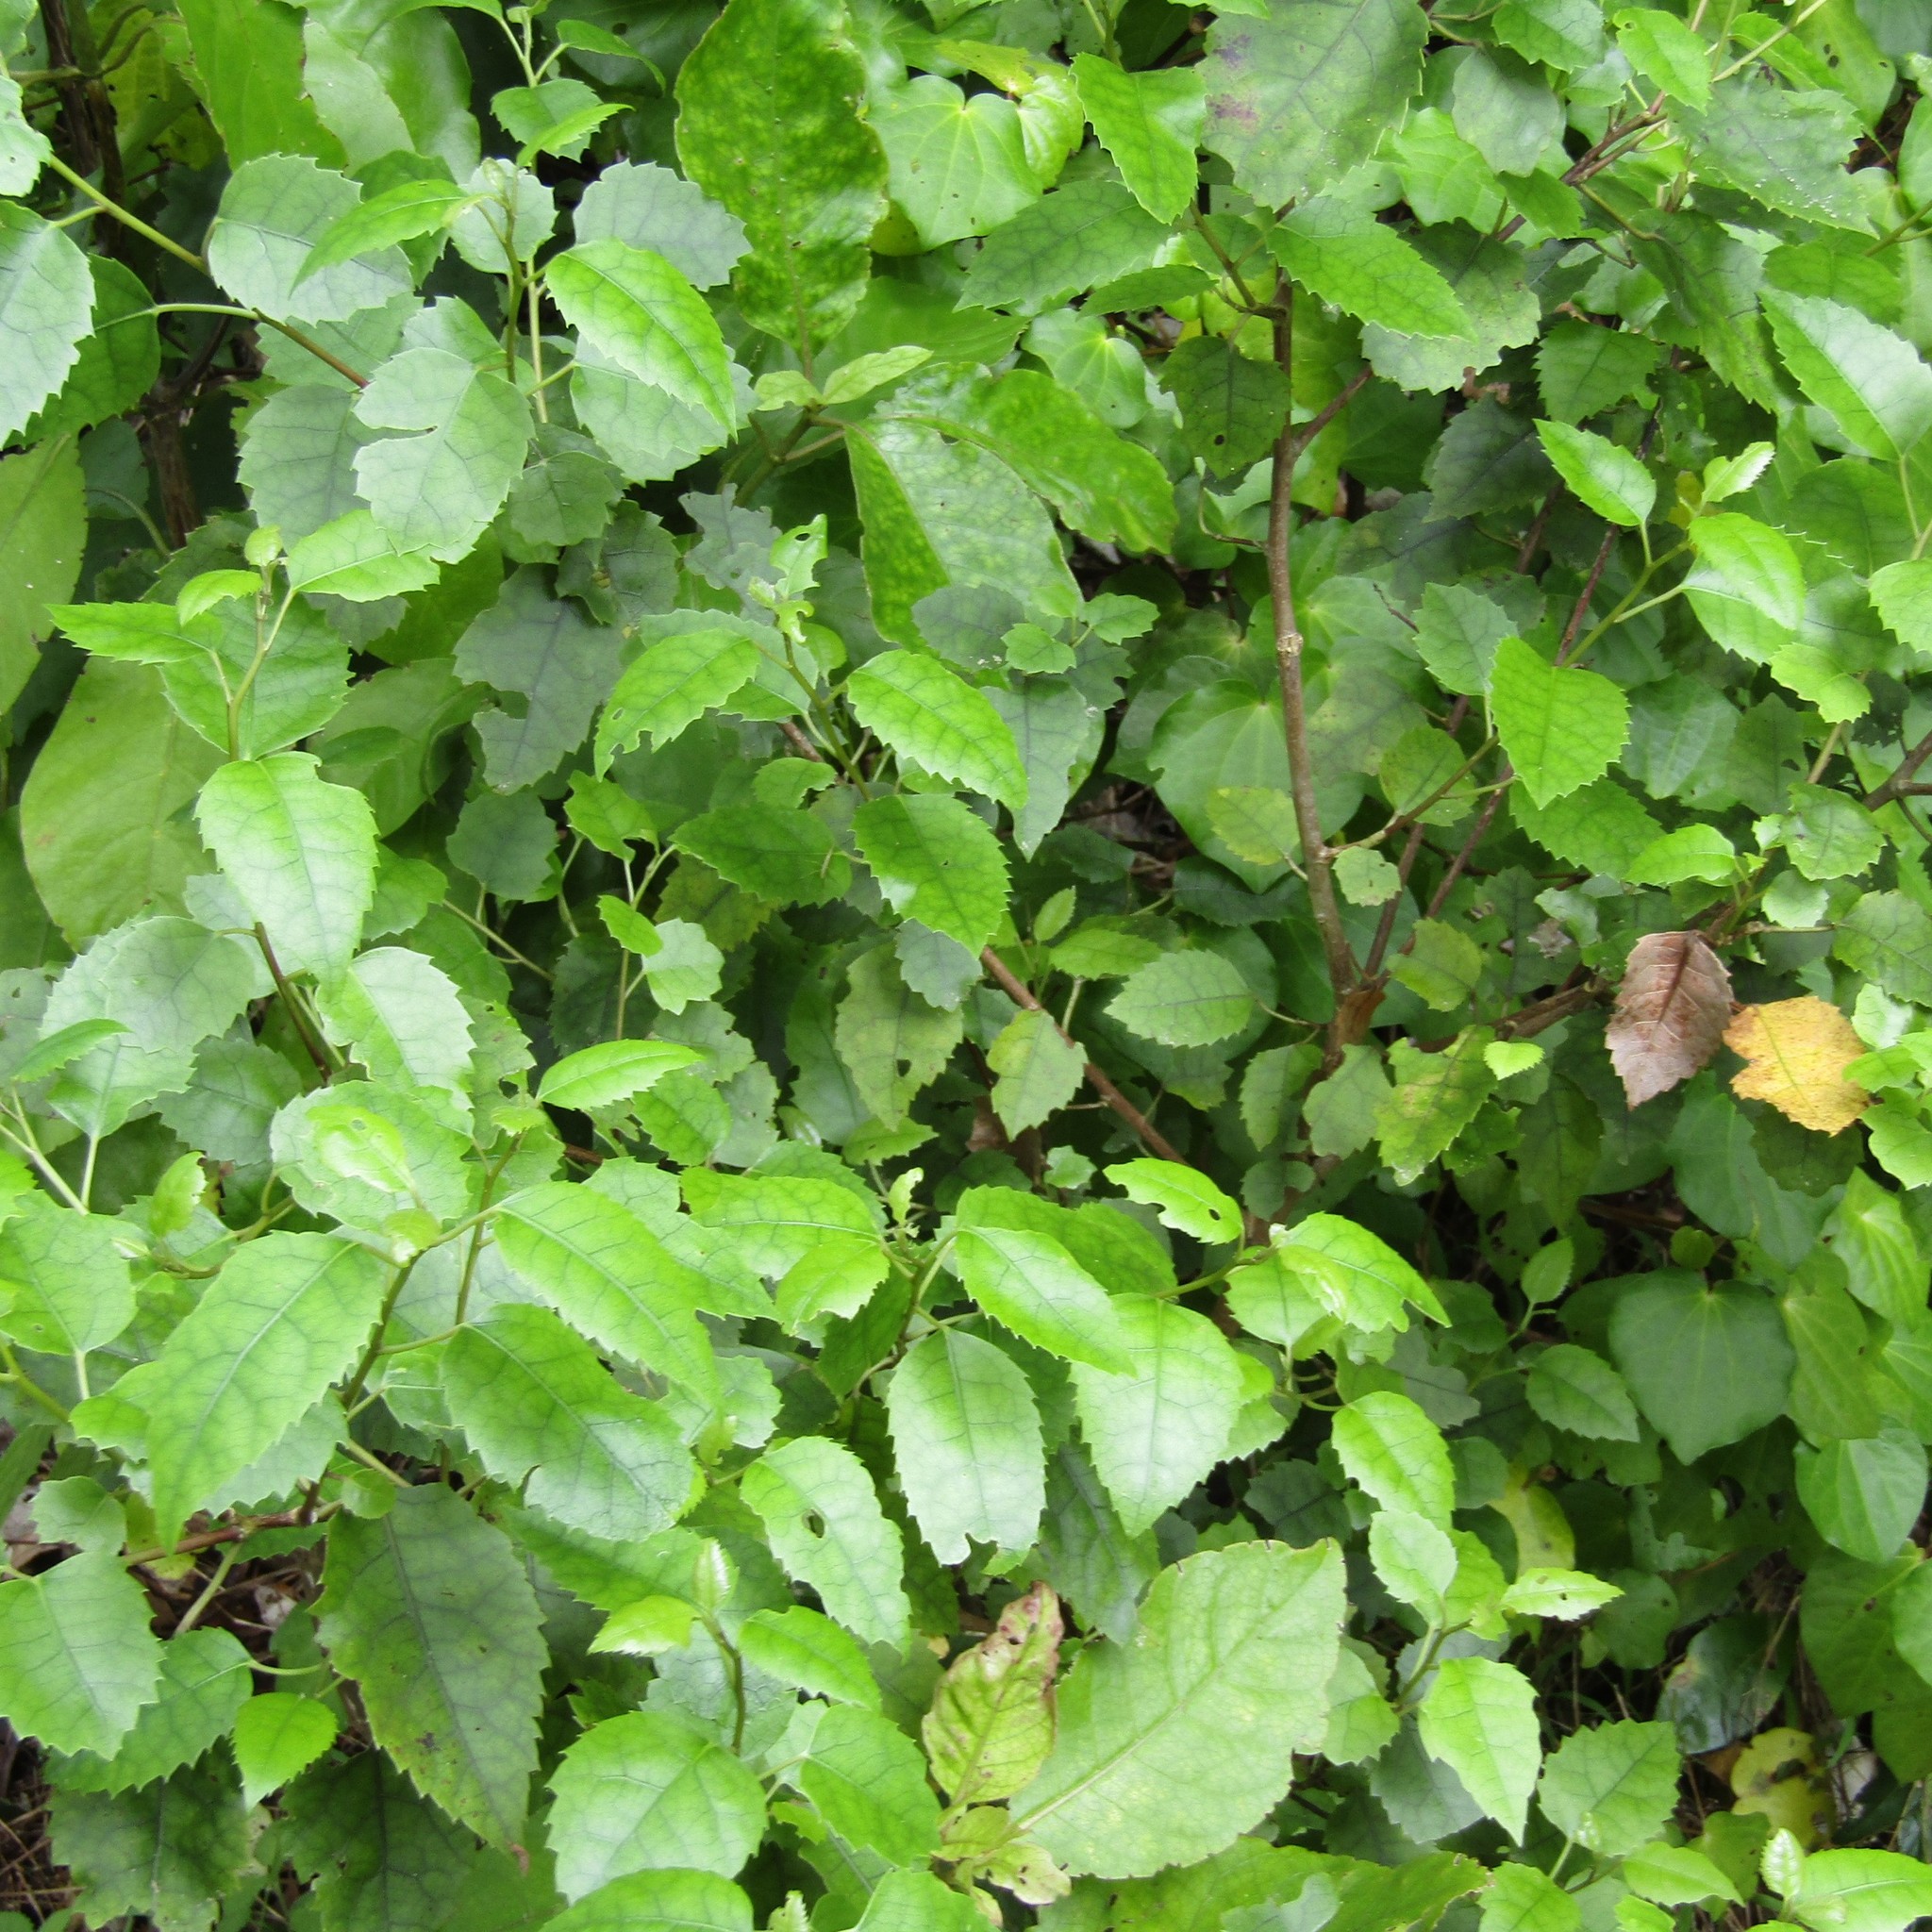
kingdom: Plantae
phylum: Tracheophyta
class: Magnoliopsida
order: Malvales
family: Malvaceae
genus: Hoheria
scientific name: Hoheria populnea
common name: Lacebark
